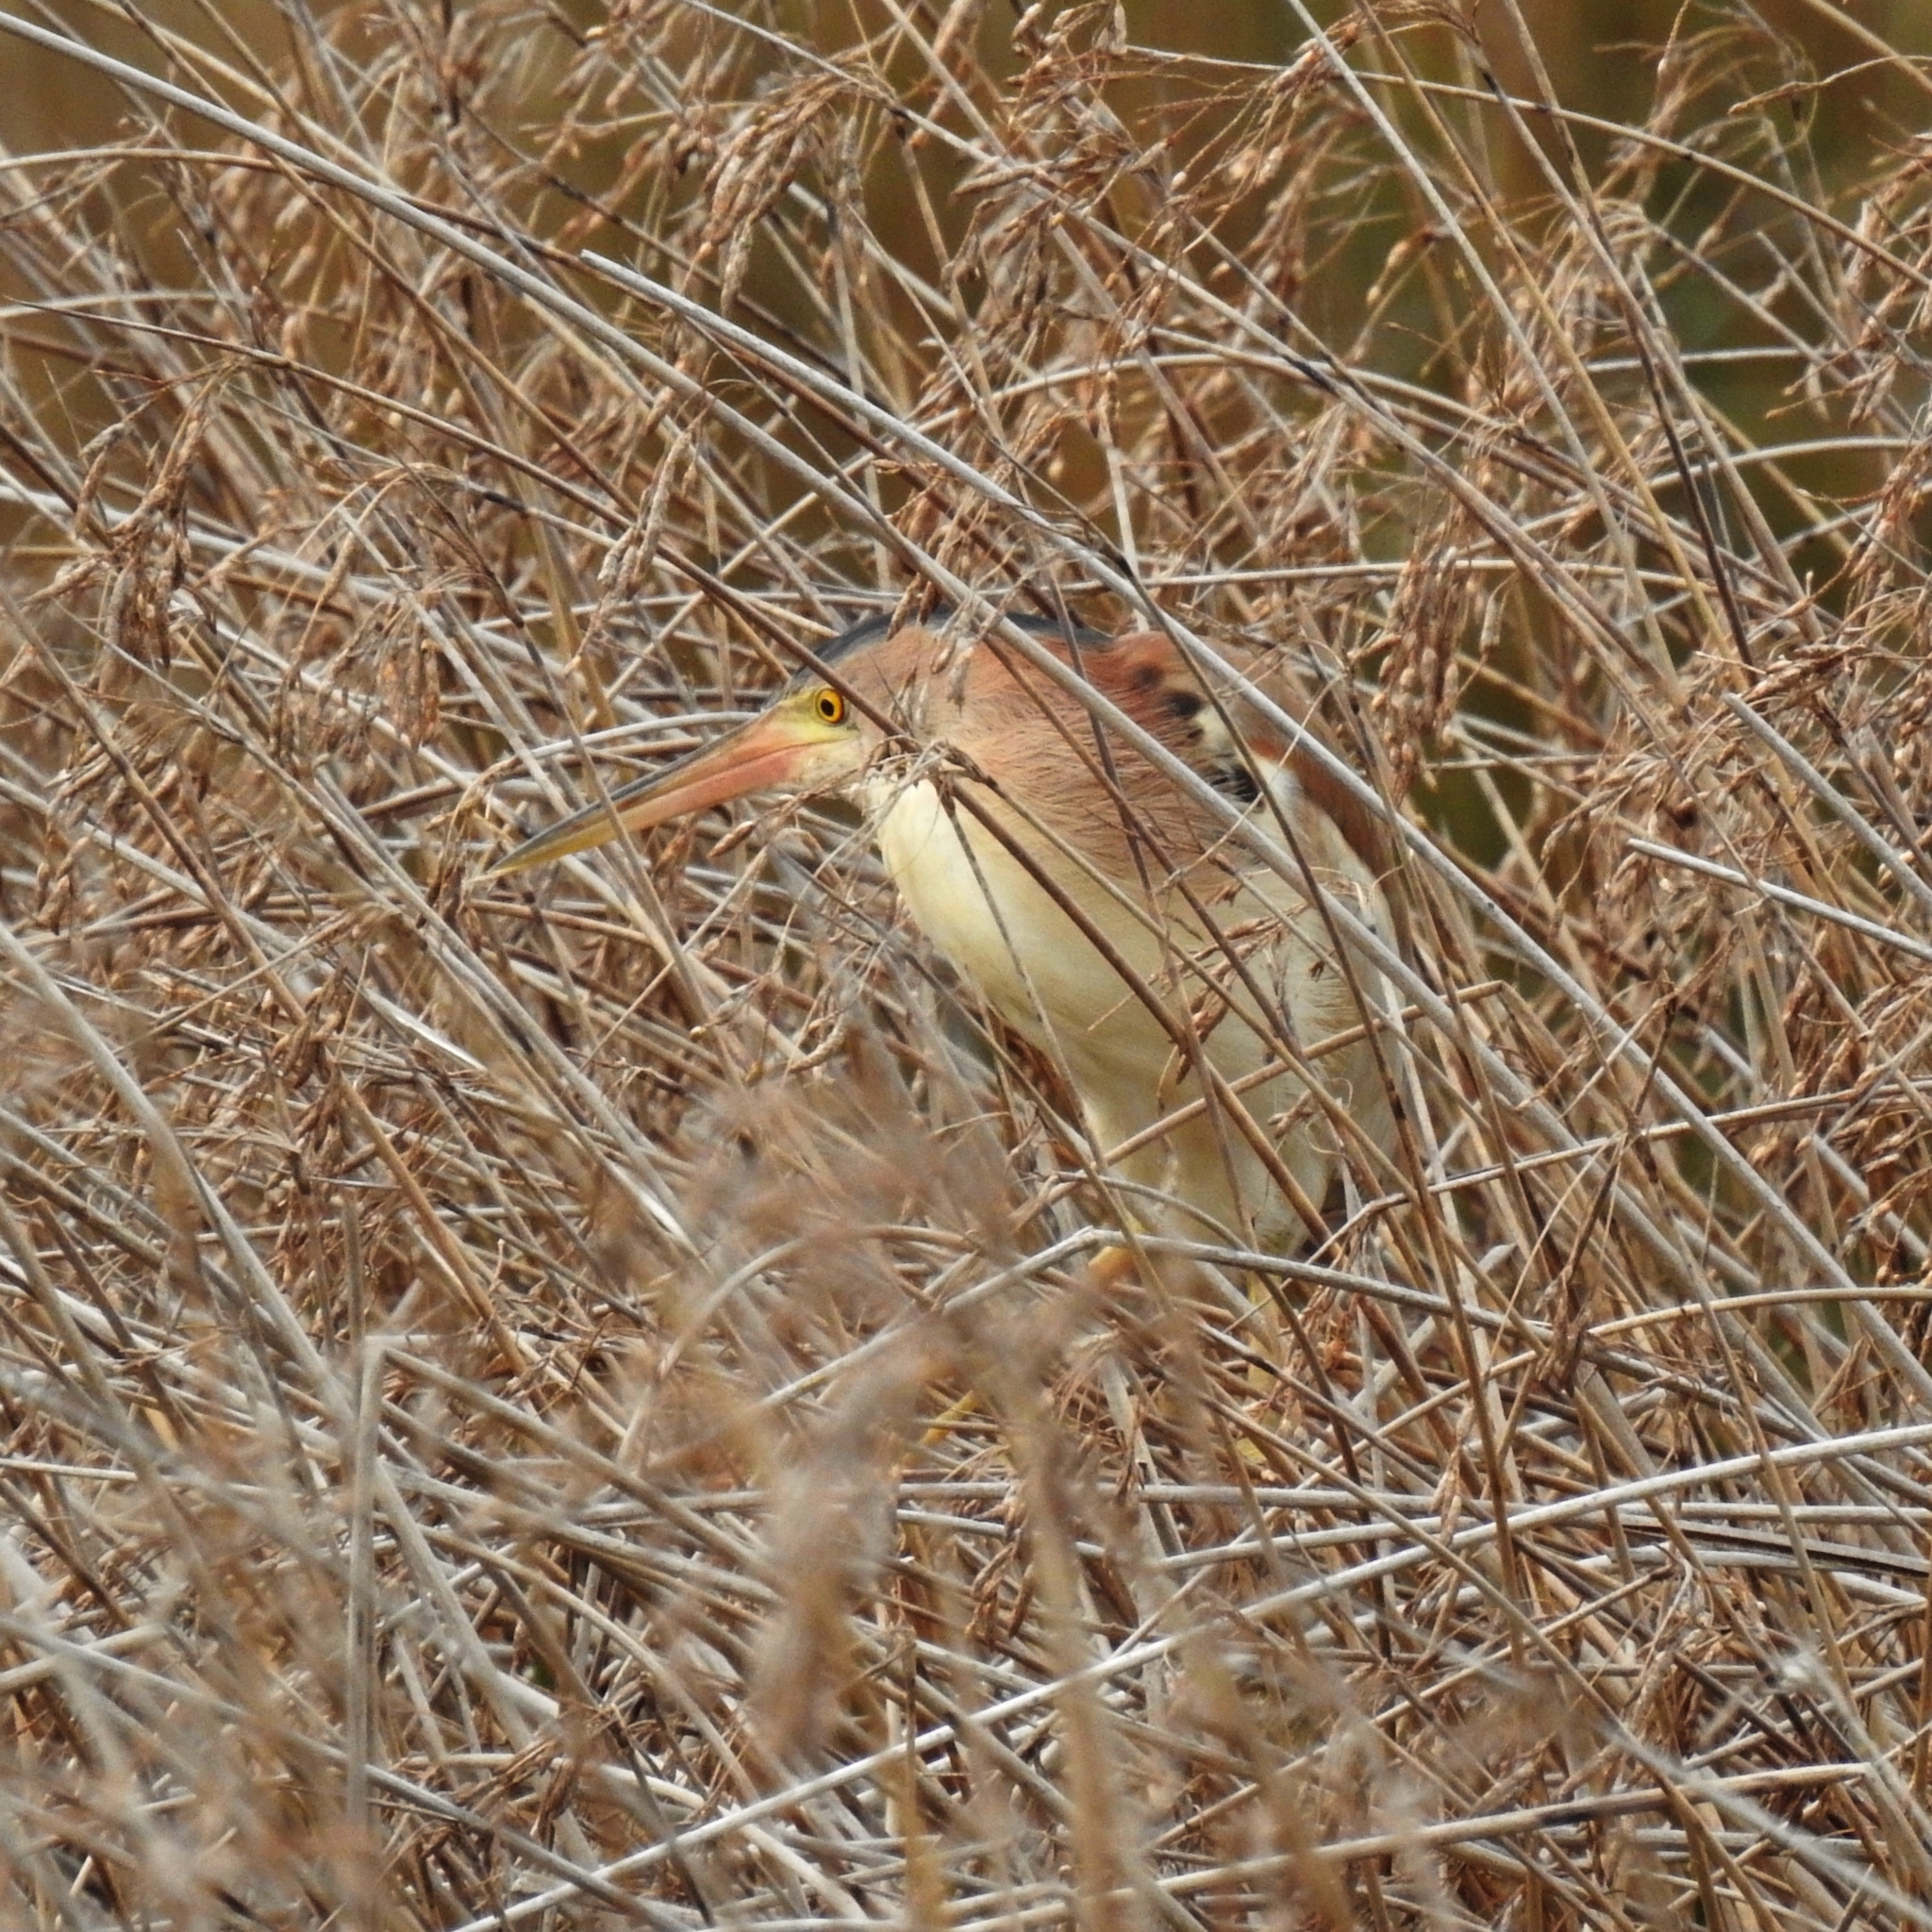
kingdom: Animalia
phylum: Chordata
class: Aves
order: Pelecaniformes
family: Ardeidae
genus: Ixobrychus
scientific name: Ixobrychus sinensis
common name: Yellow bittern
